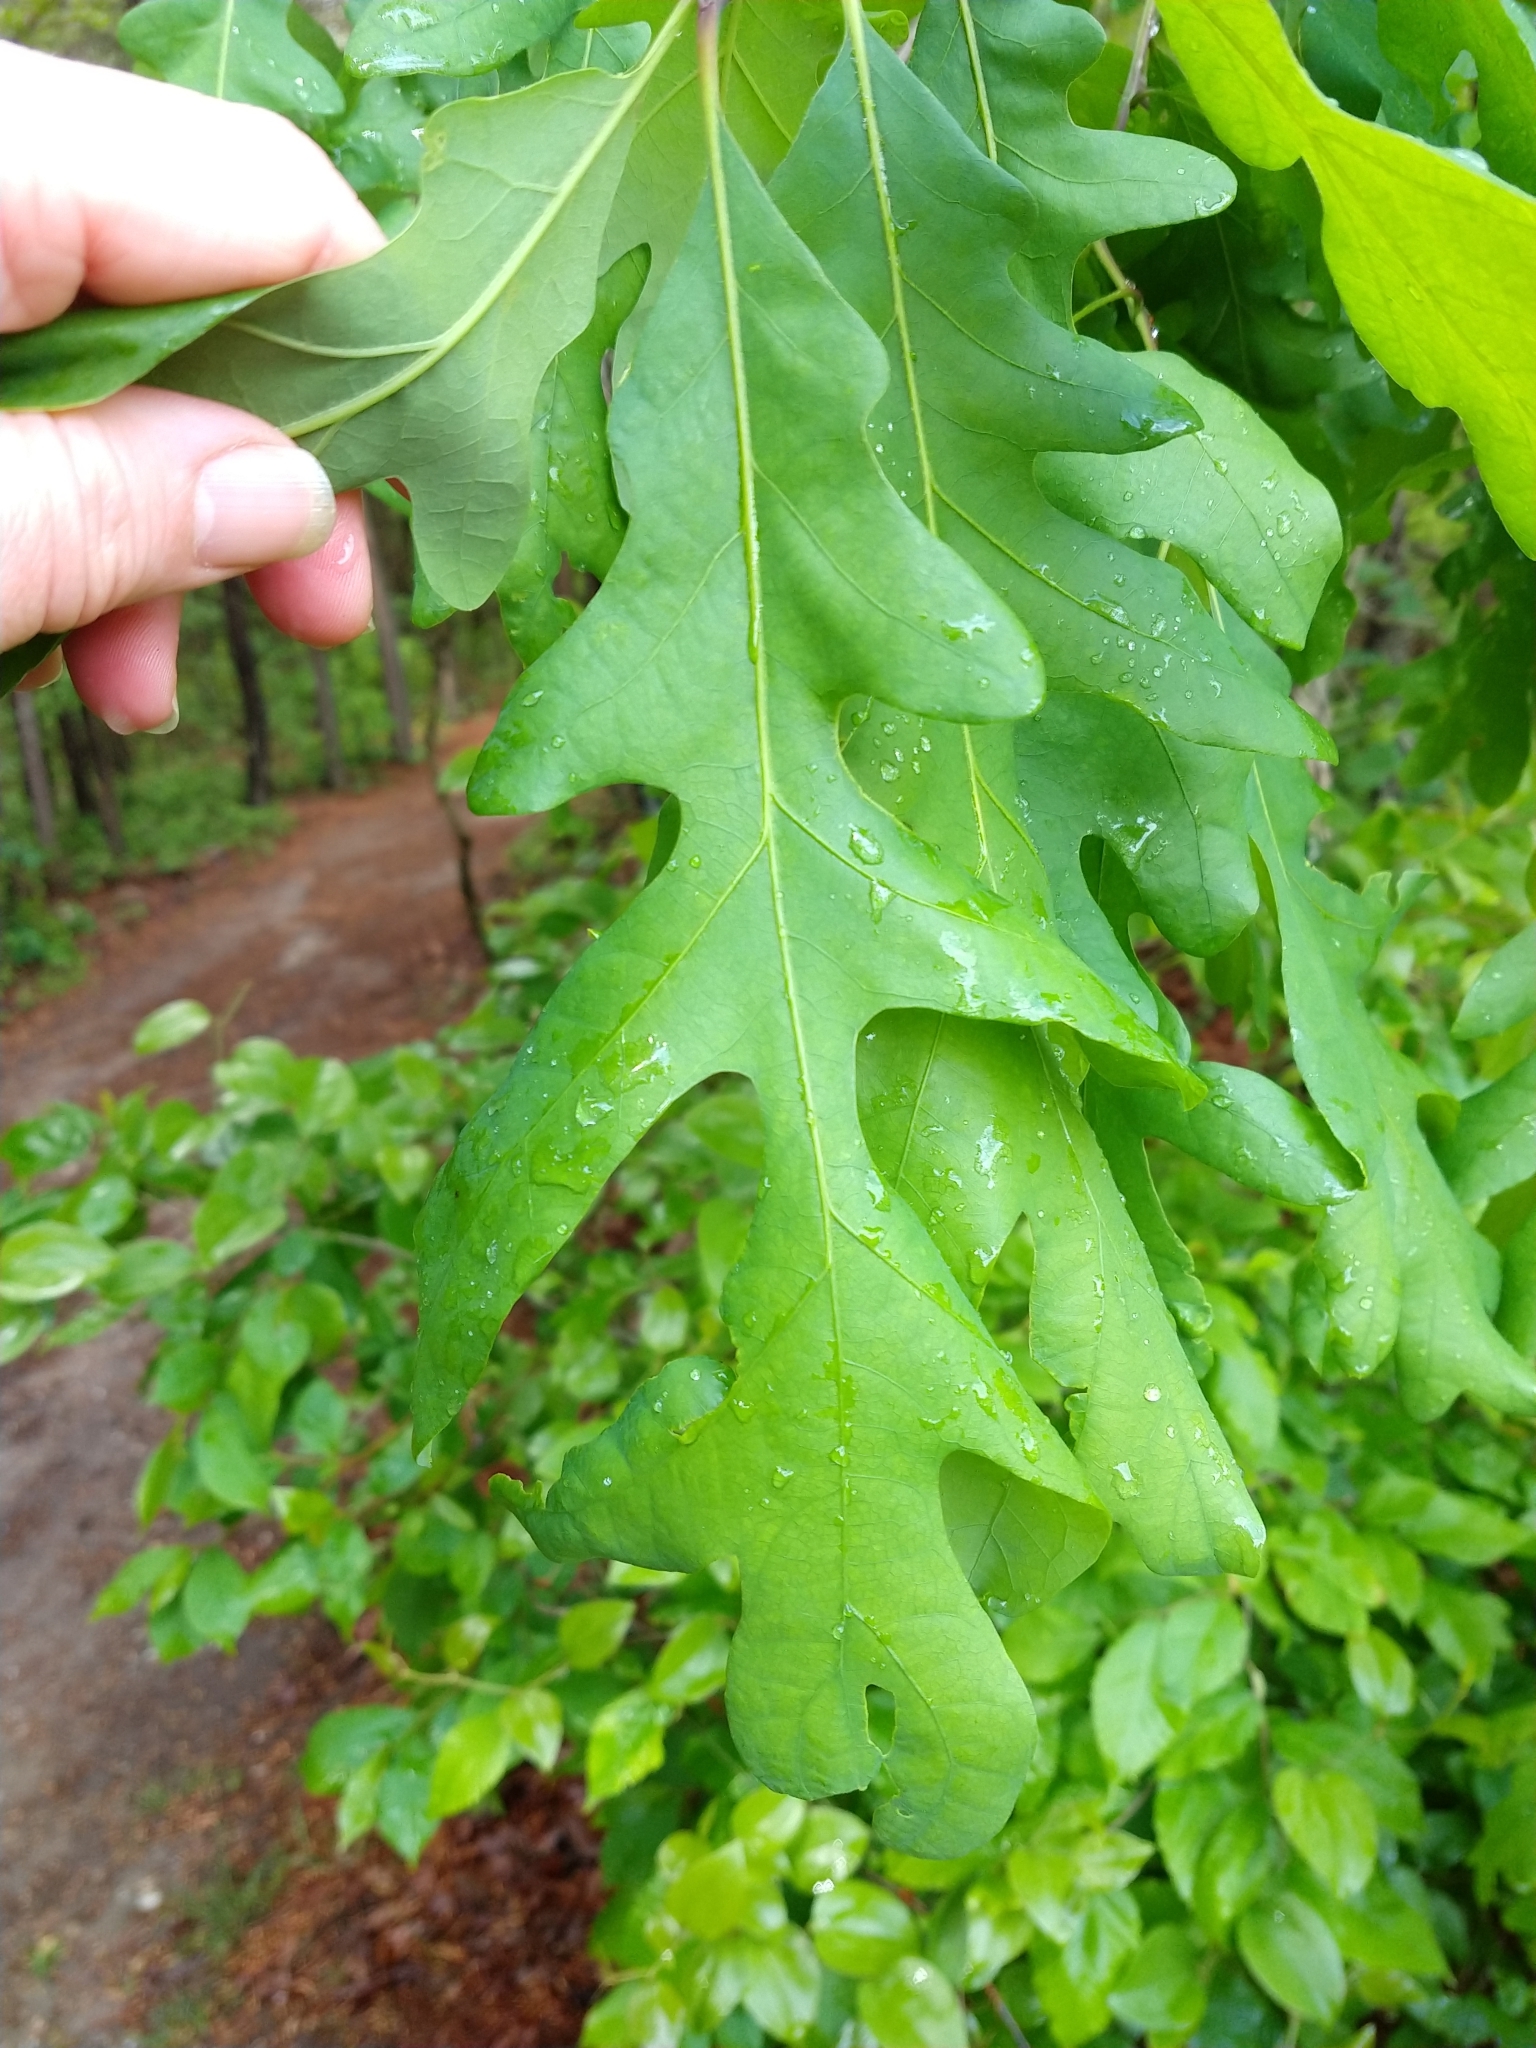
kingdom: Plantae
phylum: Tracheophyta
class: Magnoliopsida
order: Fagales
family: Fagaceae
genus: Quercus
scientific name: Quercus alba
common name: White oak
